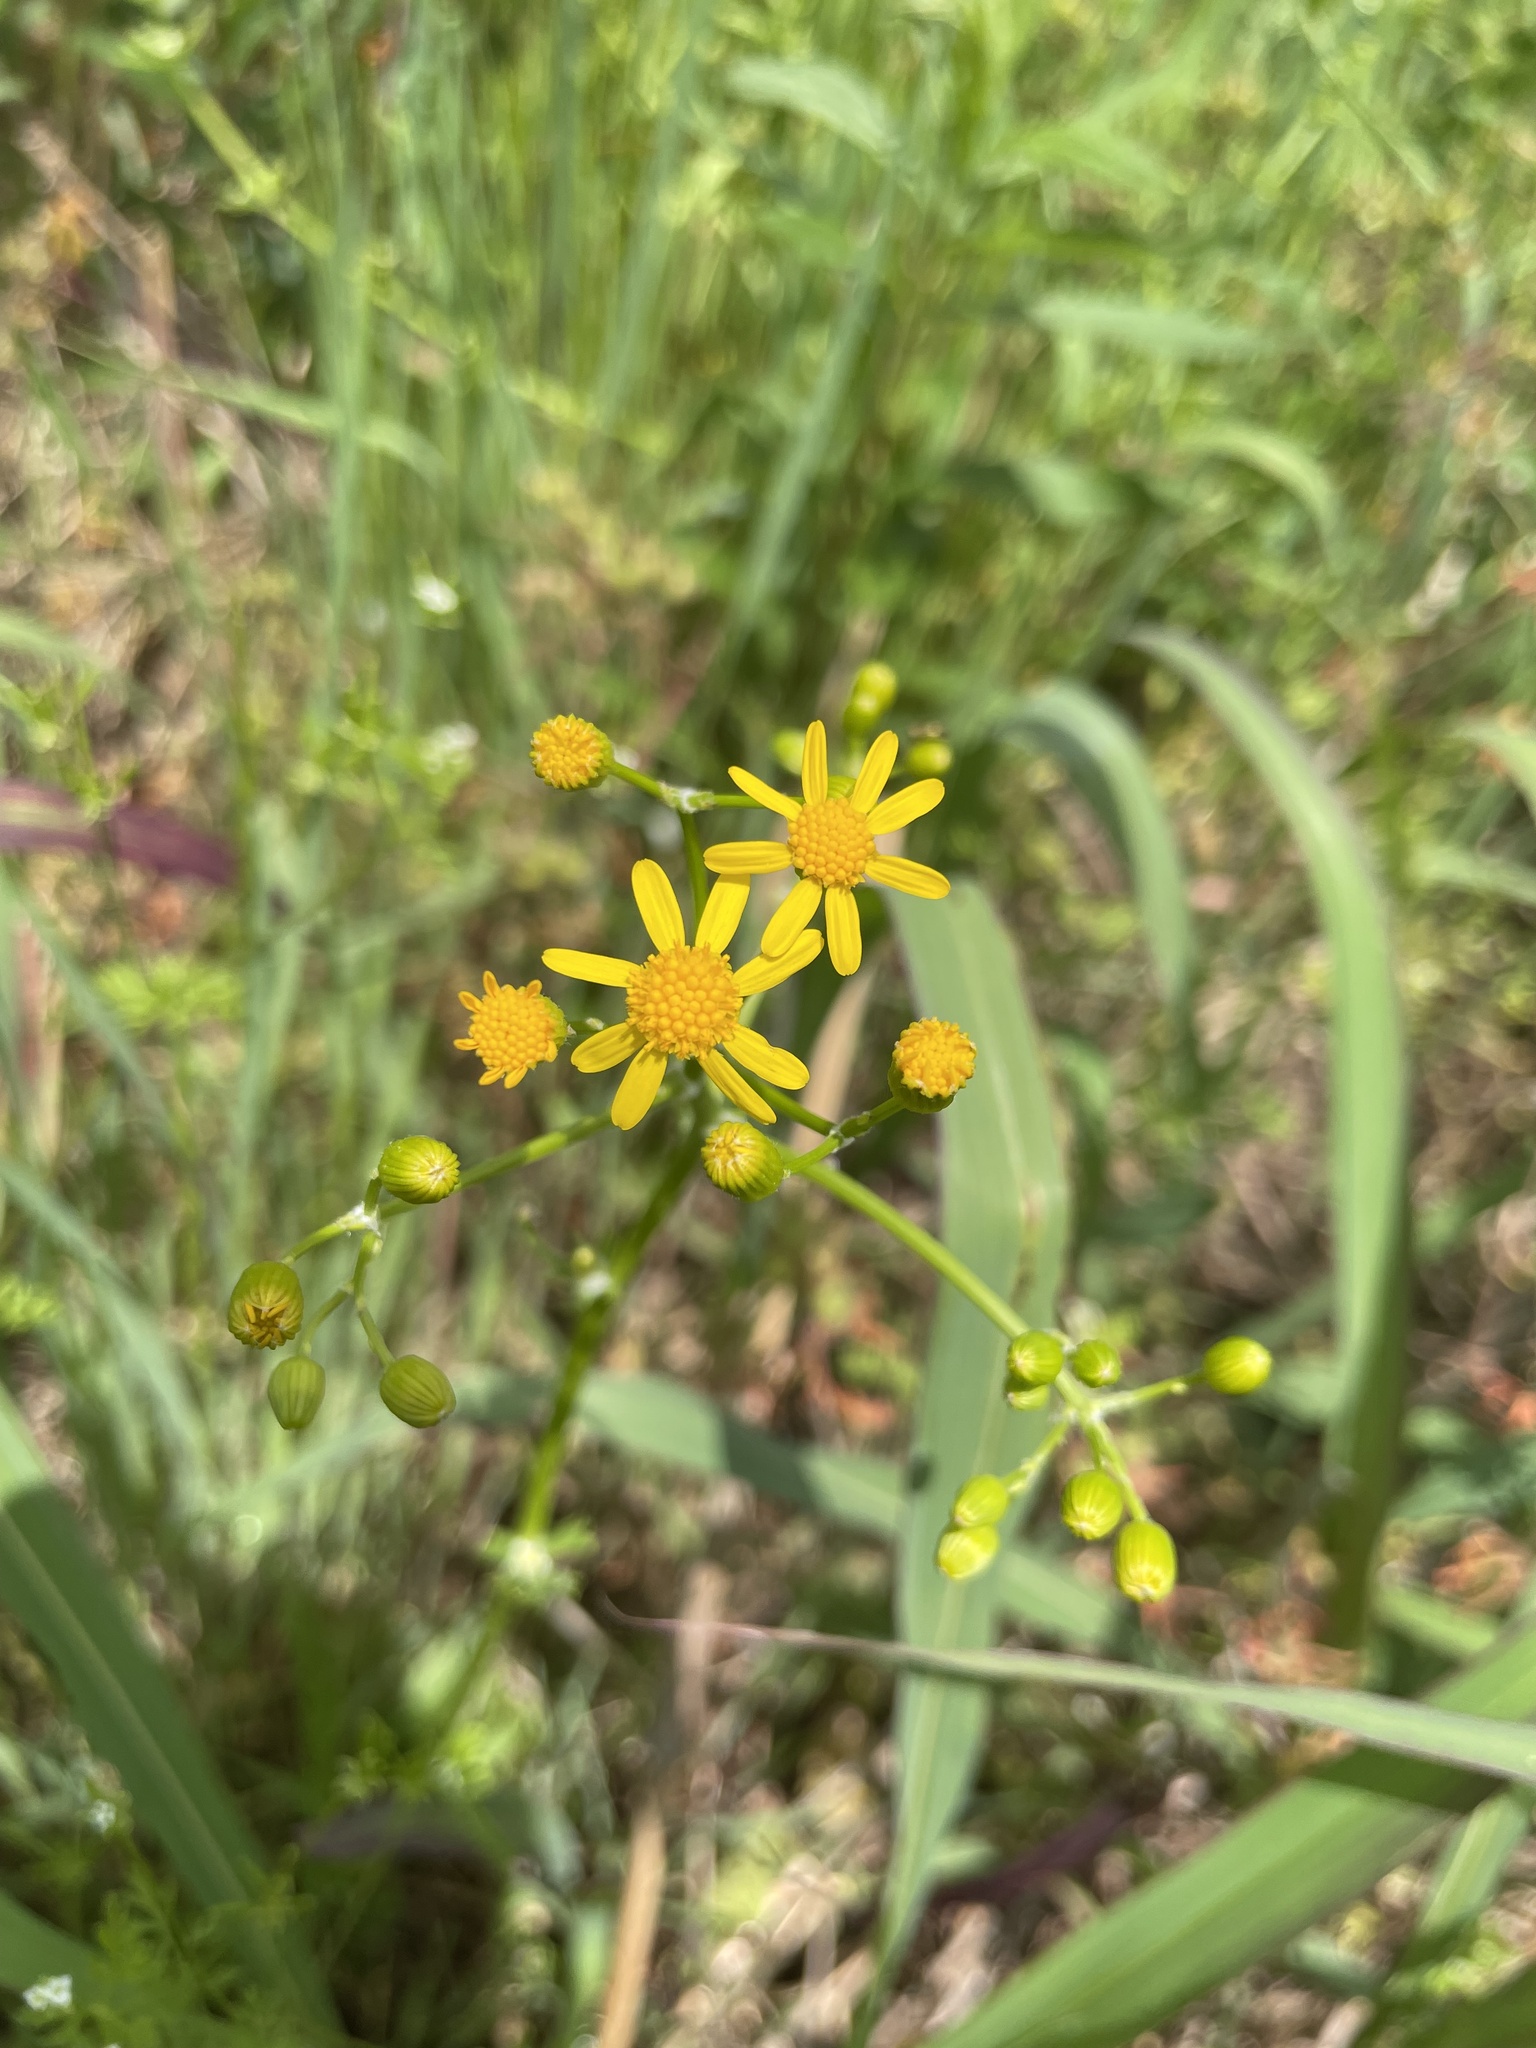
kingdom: Plantae
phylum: Tracheophyta
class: Magnoliopsida
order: Asterales
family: Asteraceae
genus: Packera
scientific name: Packera anonyma
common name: Small ragwort
